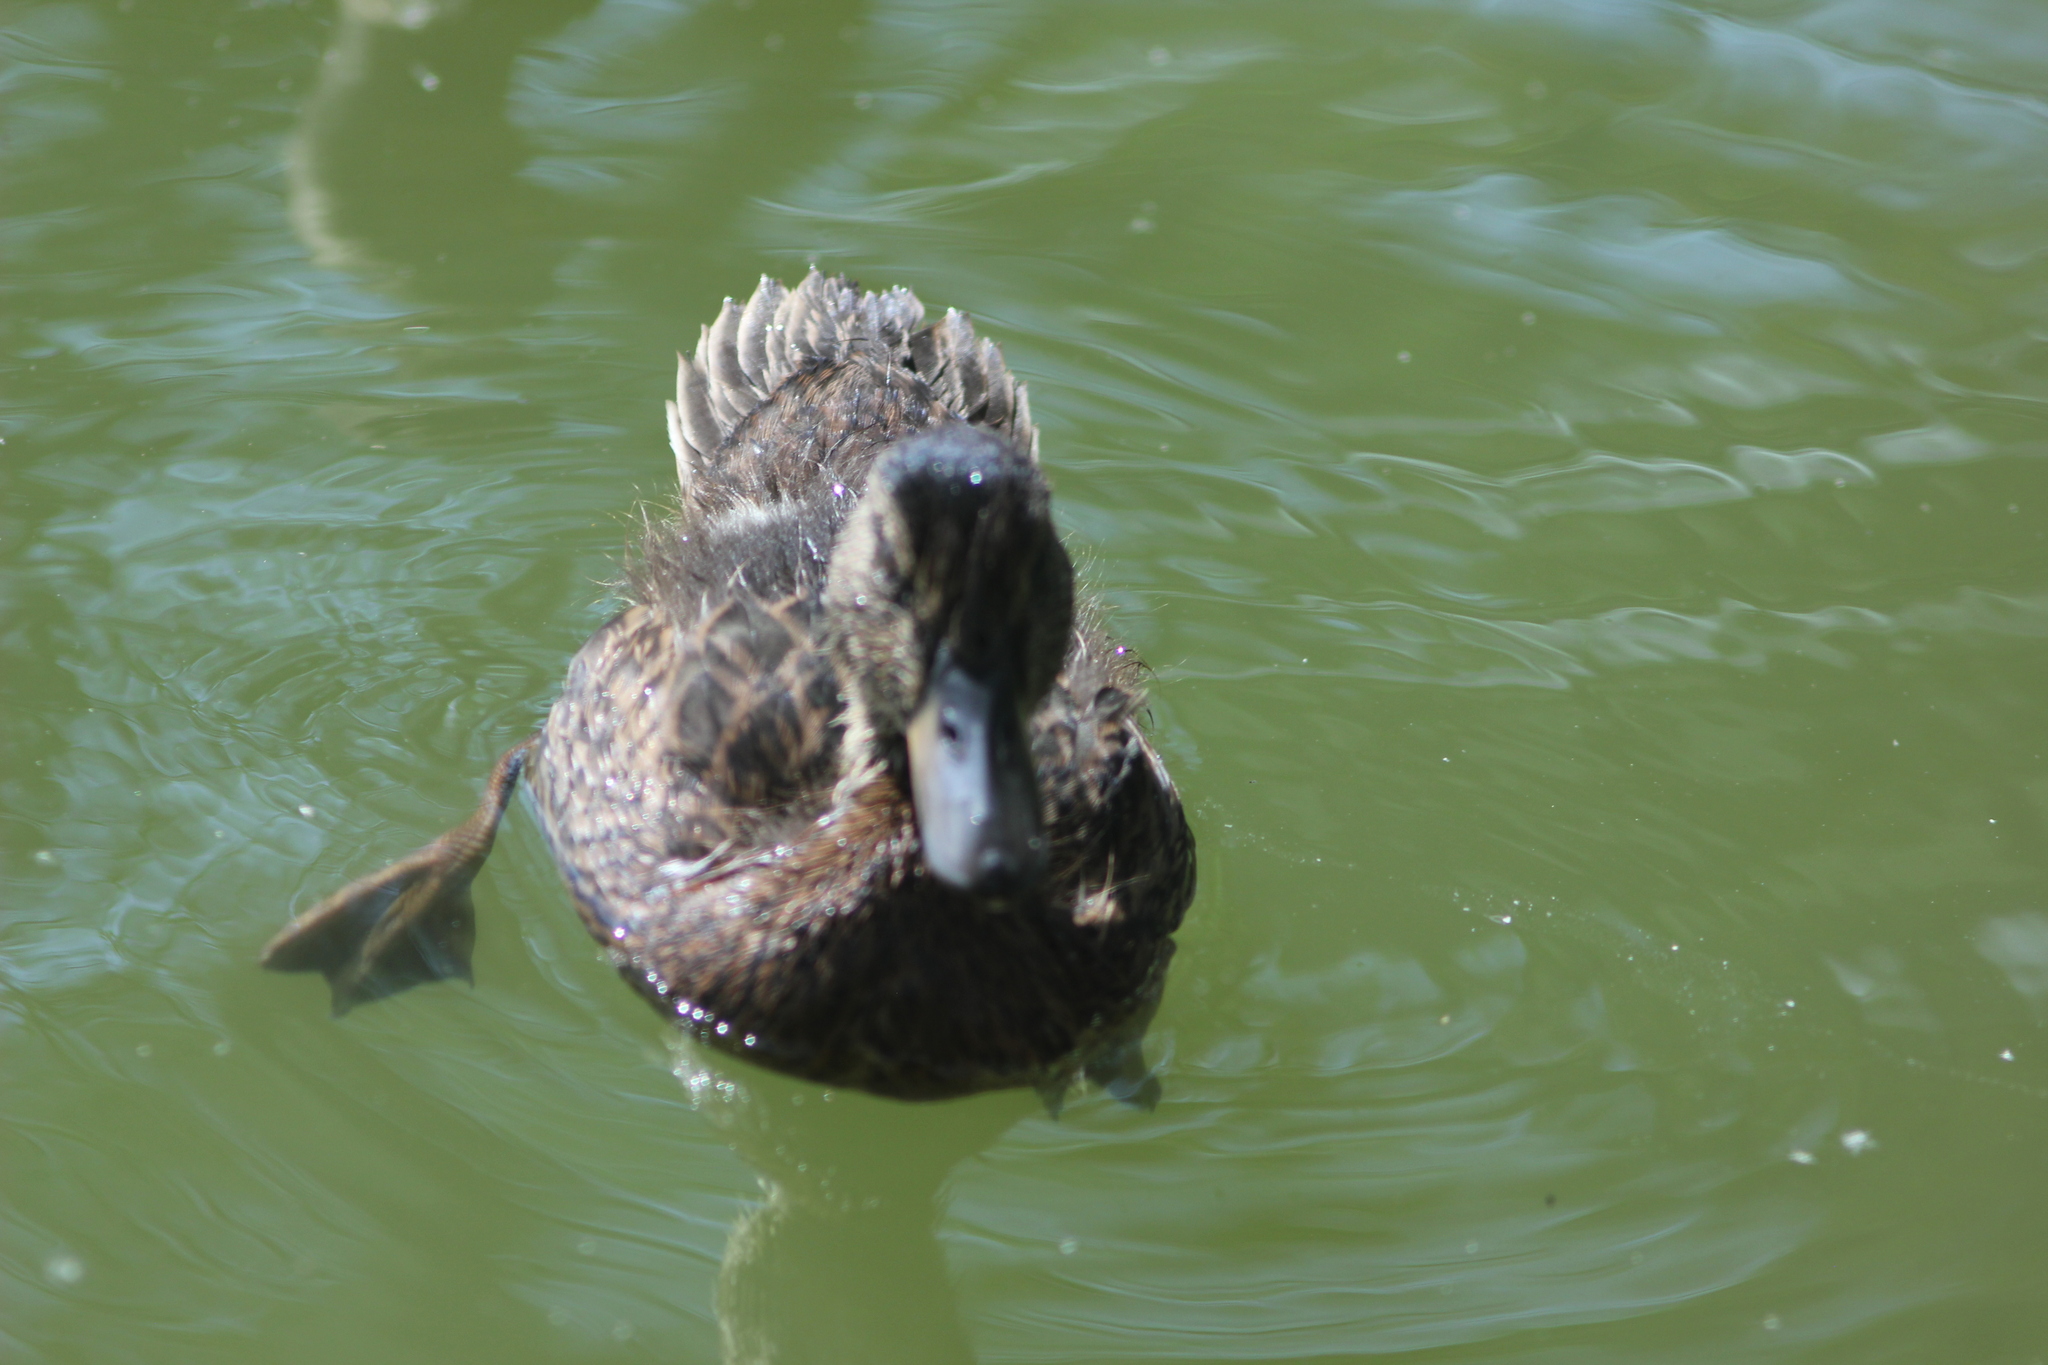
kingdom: Animalia
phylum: Chordata
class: Aves
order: Anseriformes
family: Anatidae
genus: Anas
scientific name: Anas platyrhynchos
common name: Mallard
